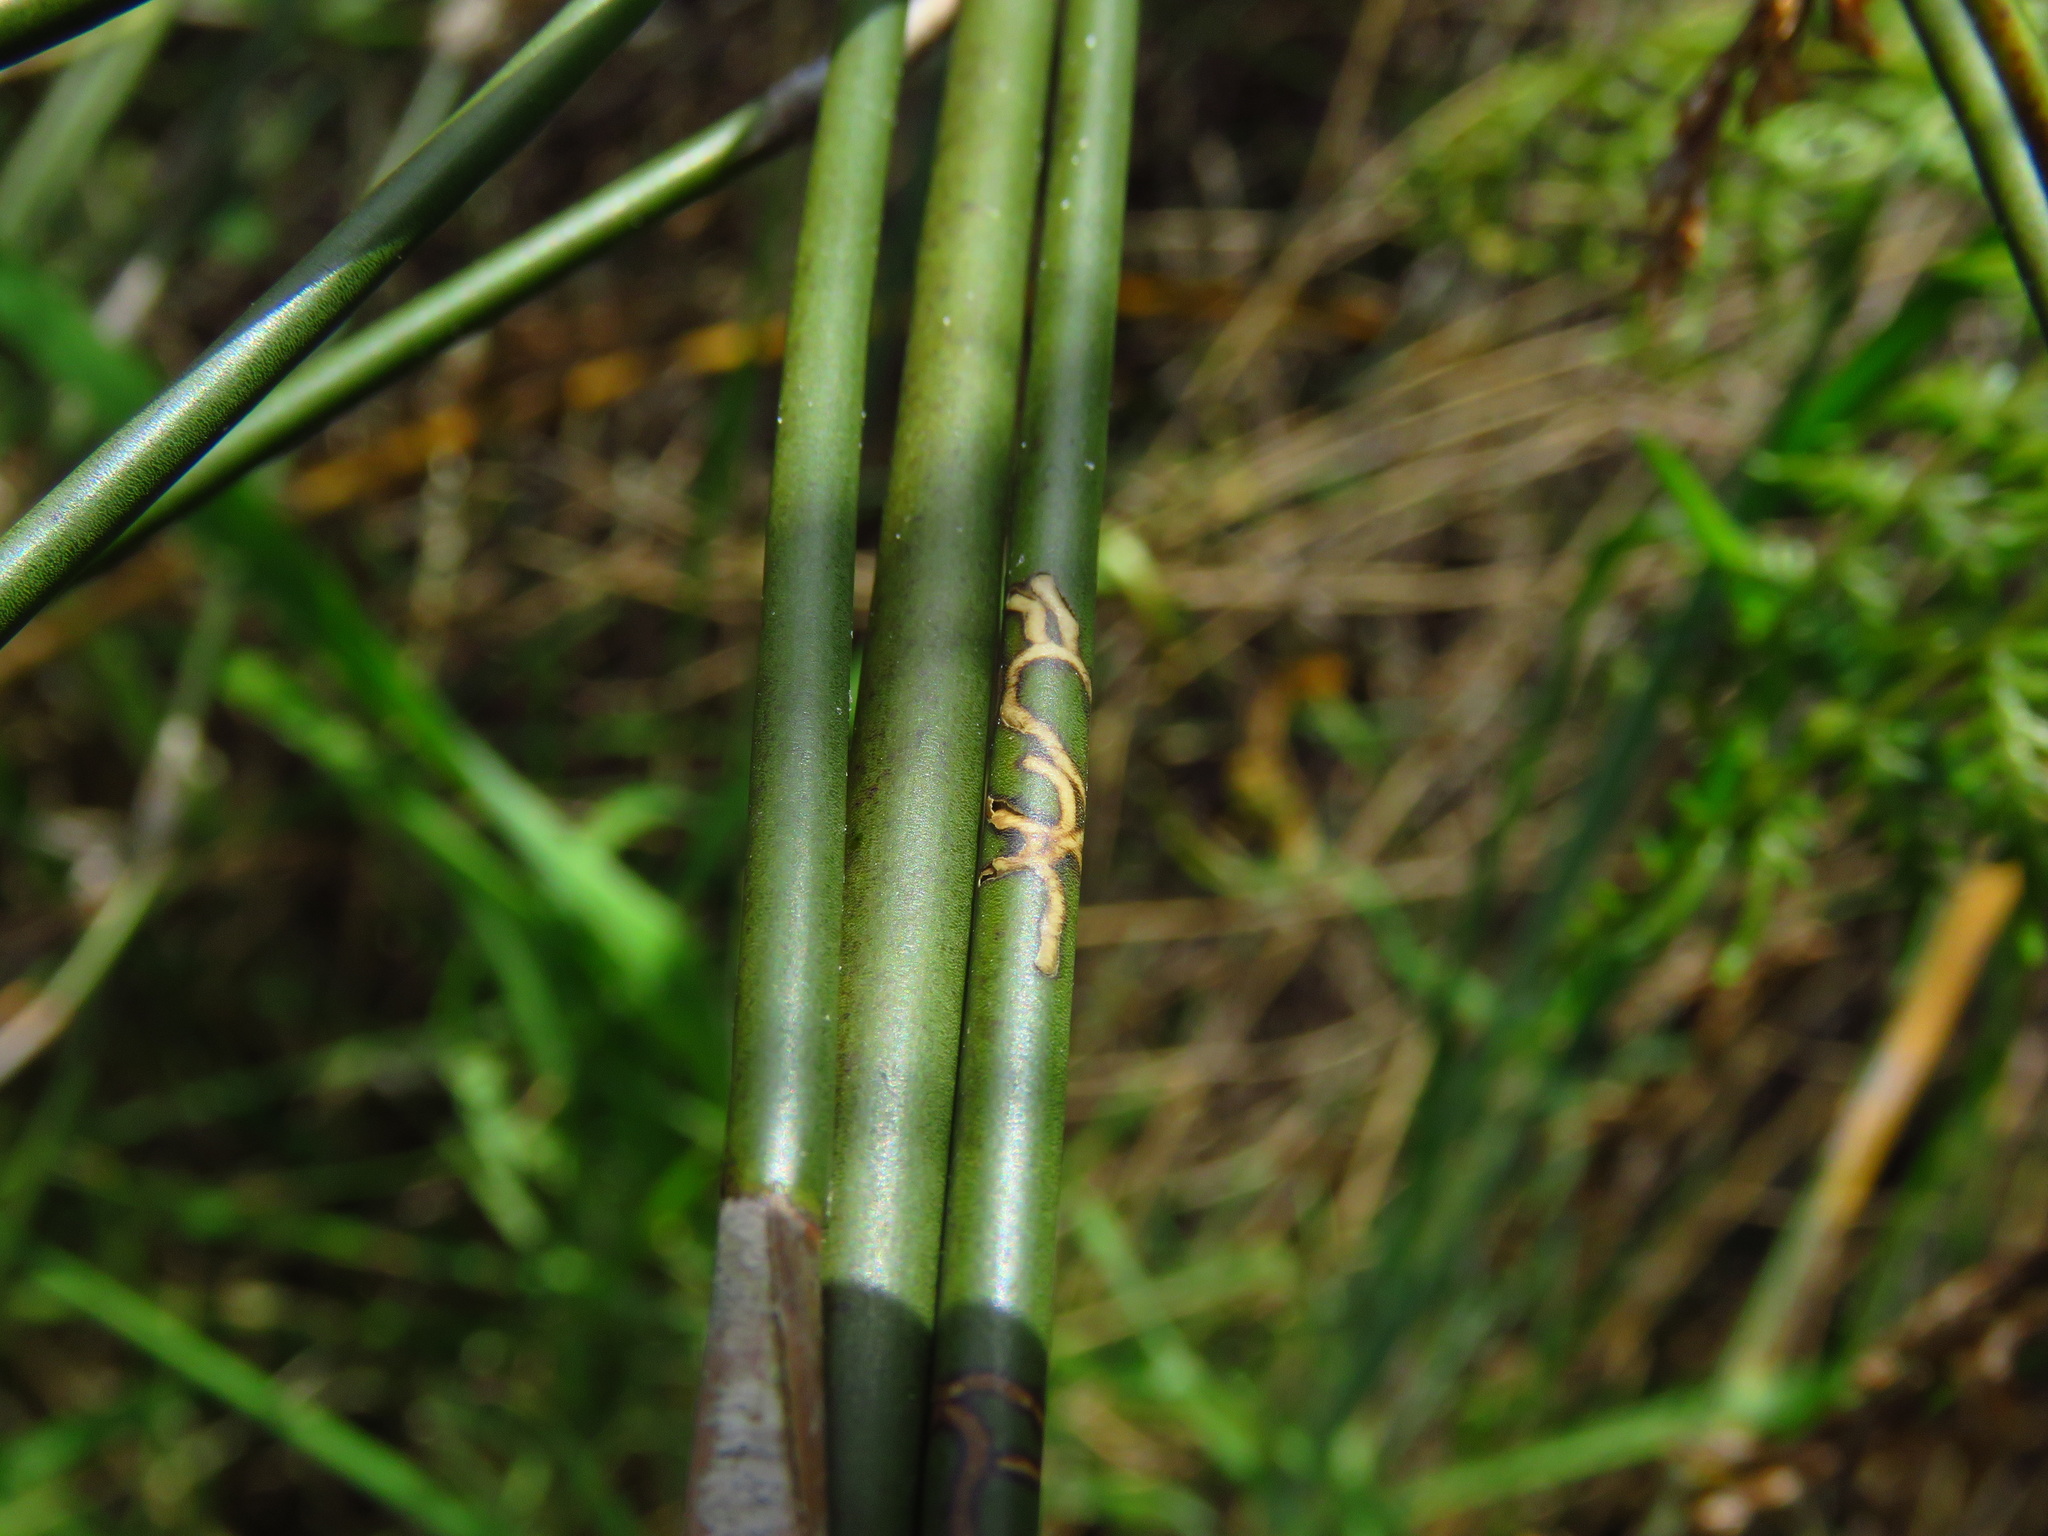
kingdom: Animalia
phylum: Arthropoda
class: Insecta
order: Lepidoptera
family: Pterolonchidae
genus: Houdinia
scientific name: Houdinia flexilissima
